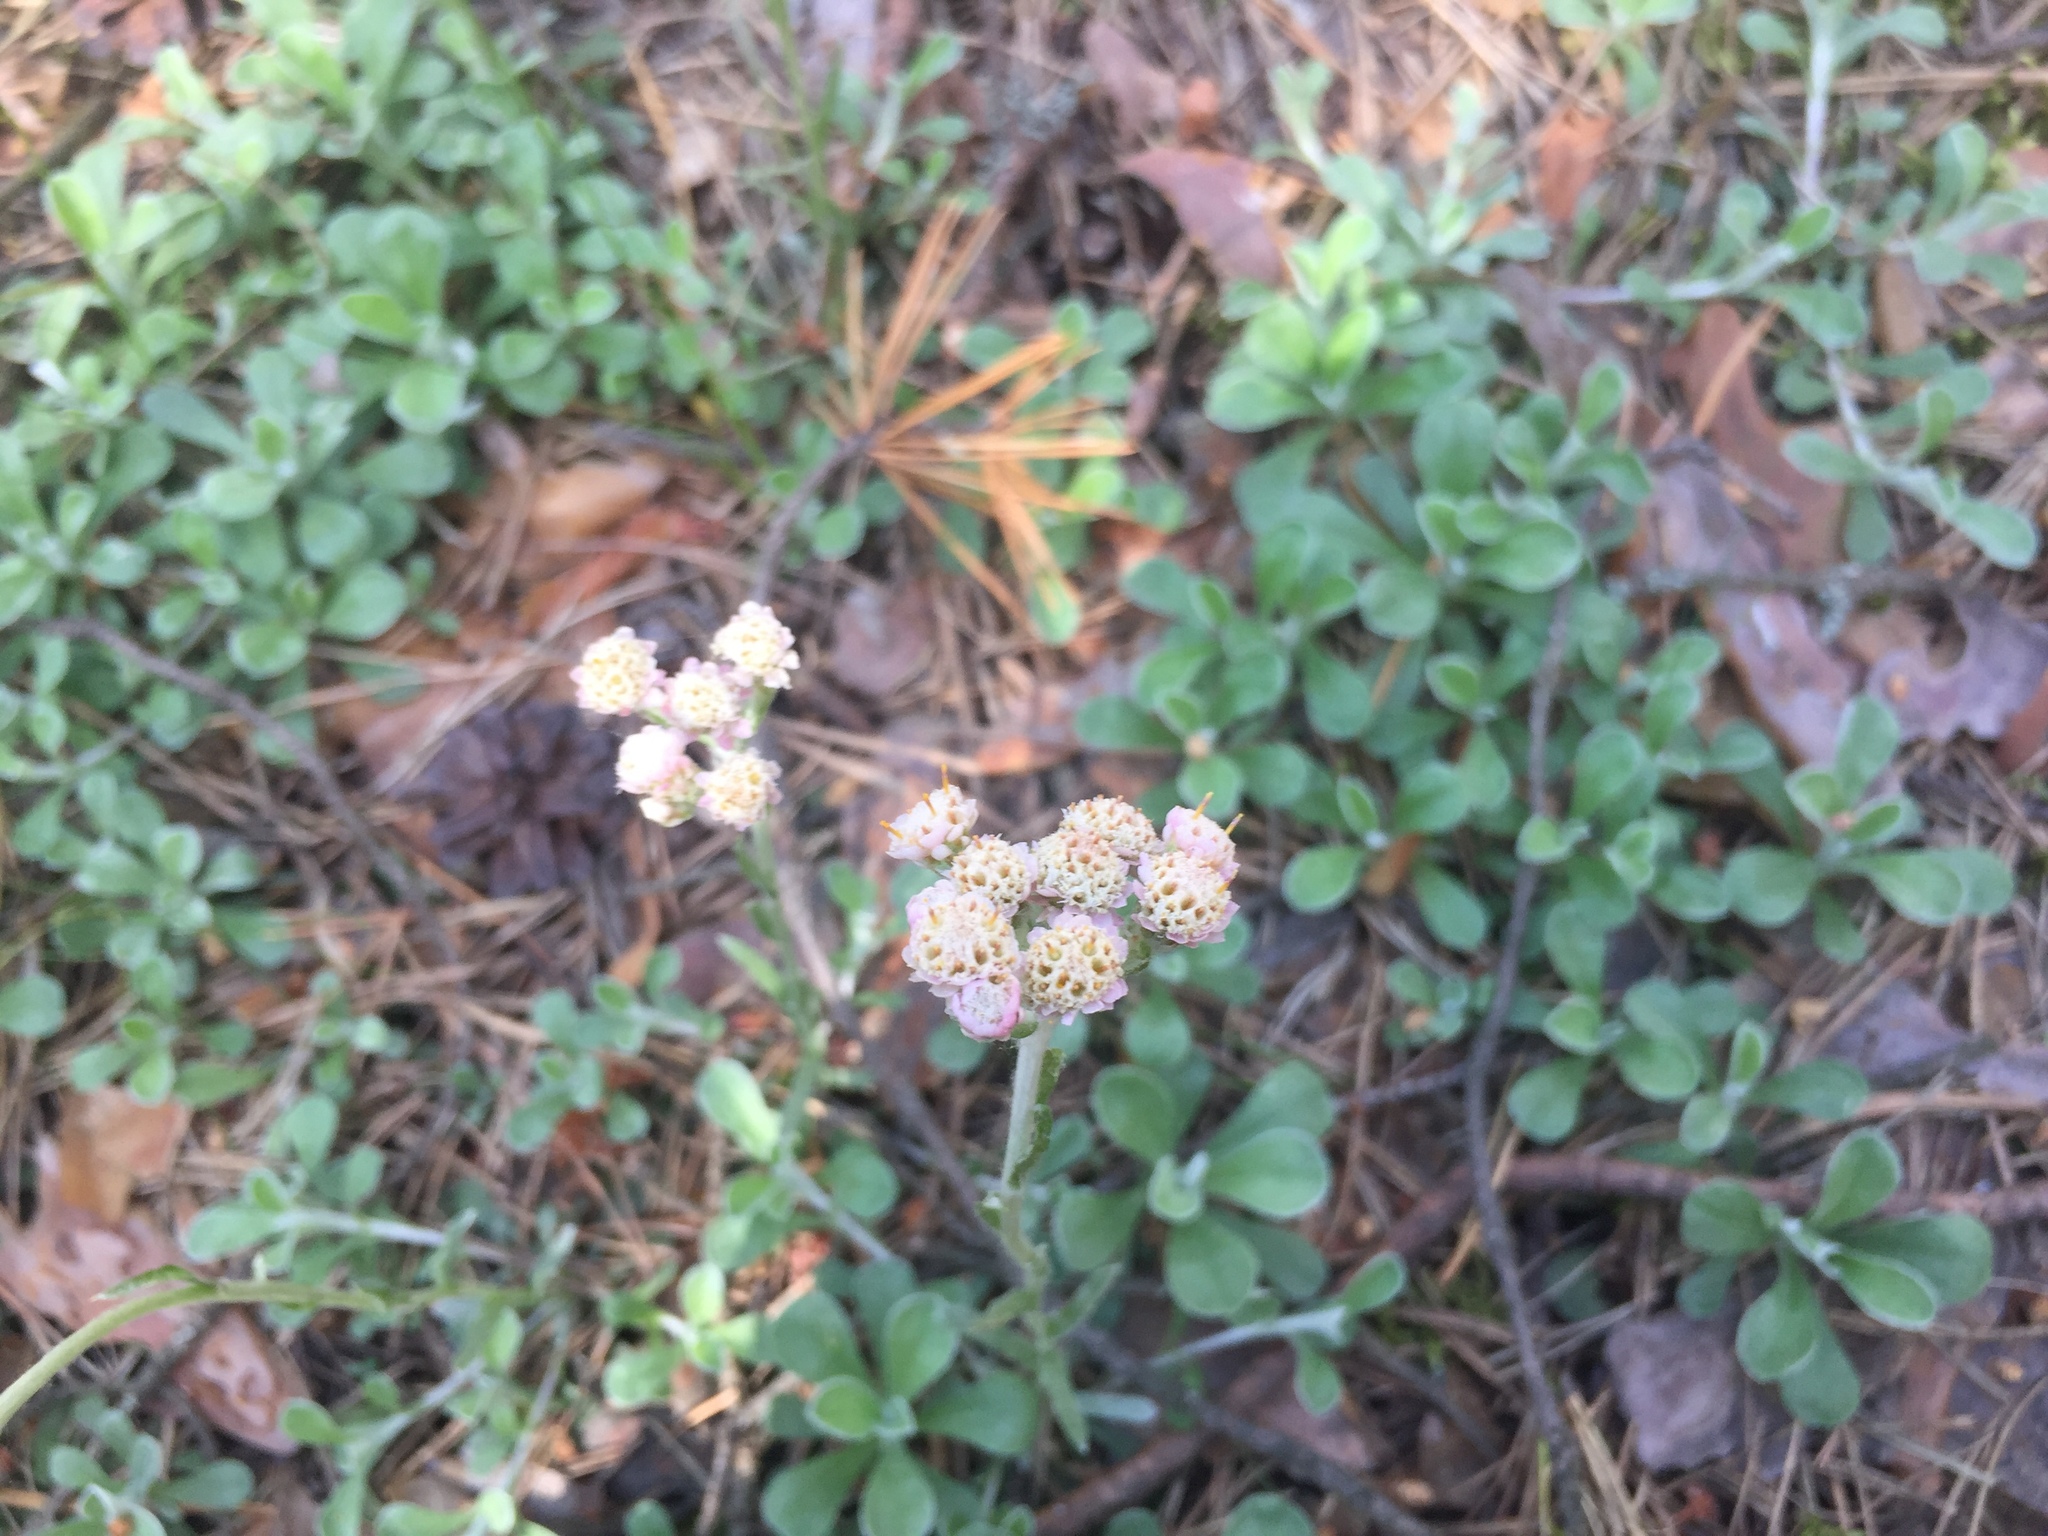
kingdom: Plantae
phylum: Tracheophyta
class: Magnoliopsida
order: Asterales
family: Asteraceae
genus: Antennaria
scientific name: Antennaria dioica
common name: Mountain everlasting
